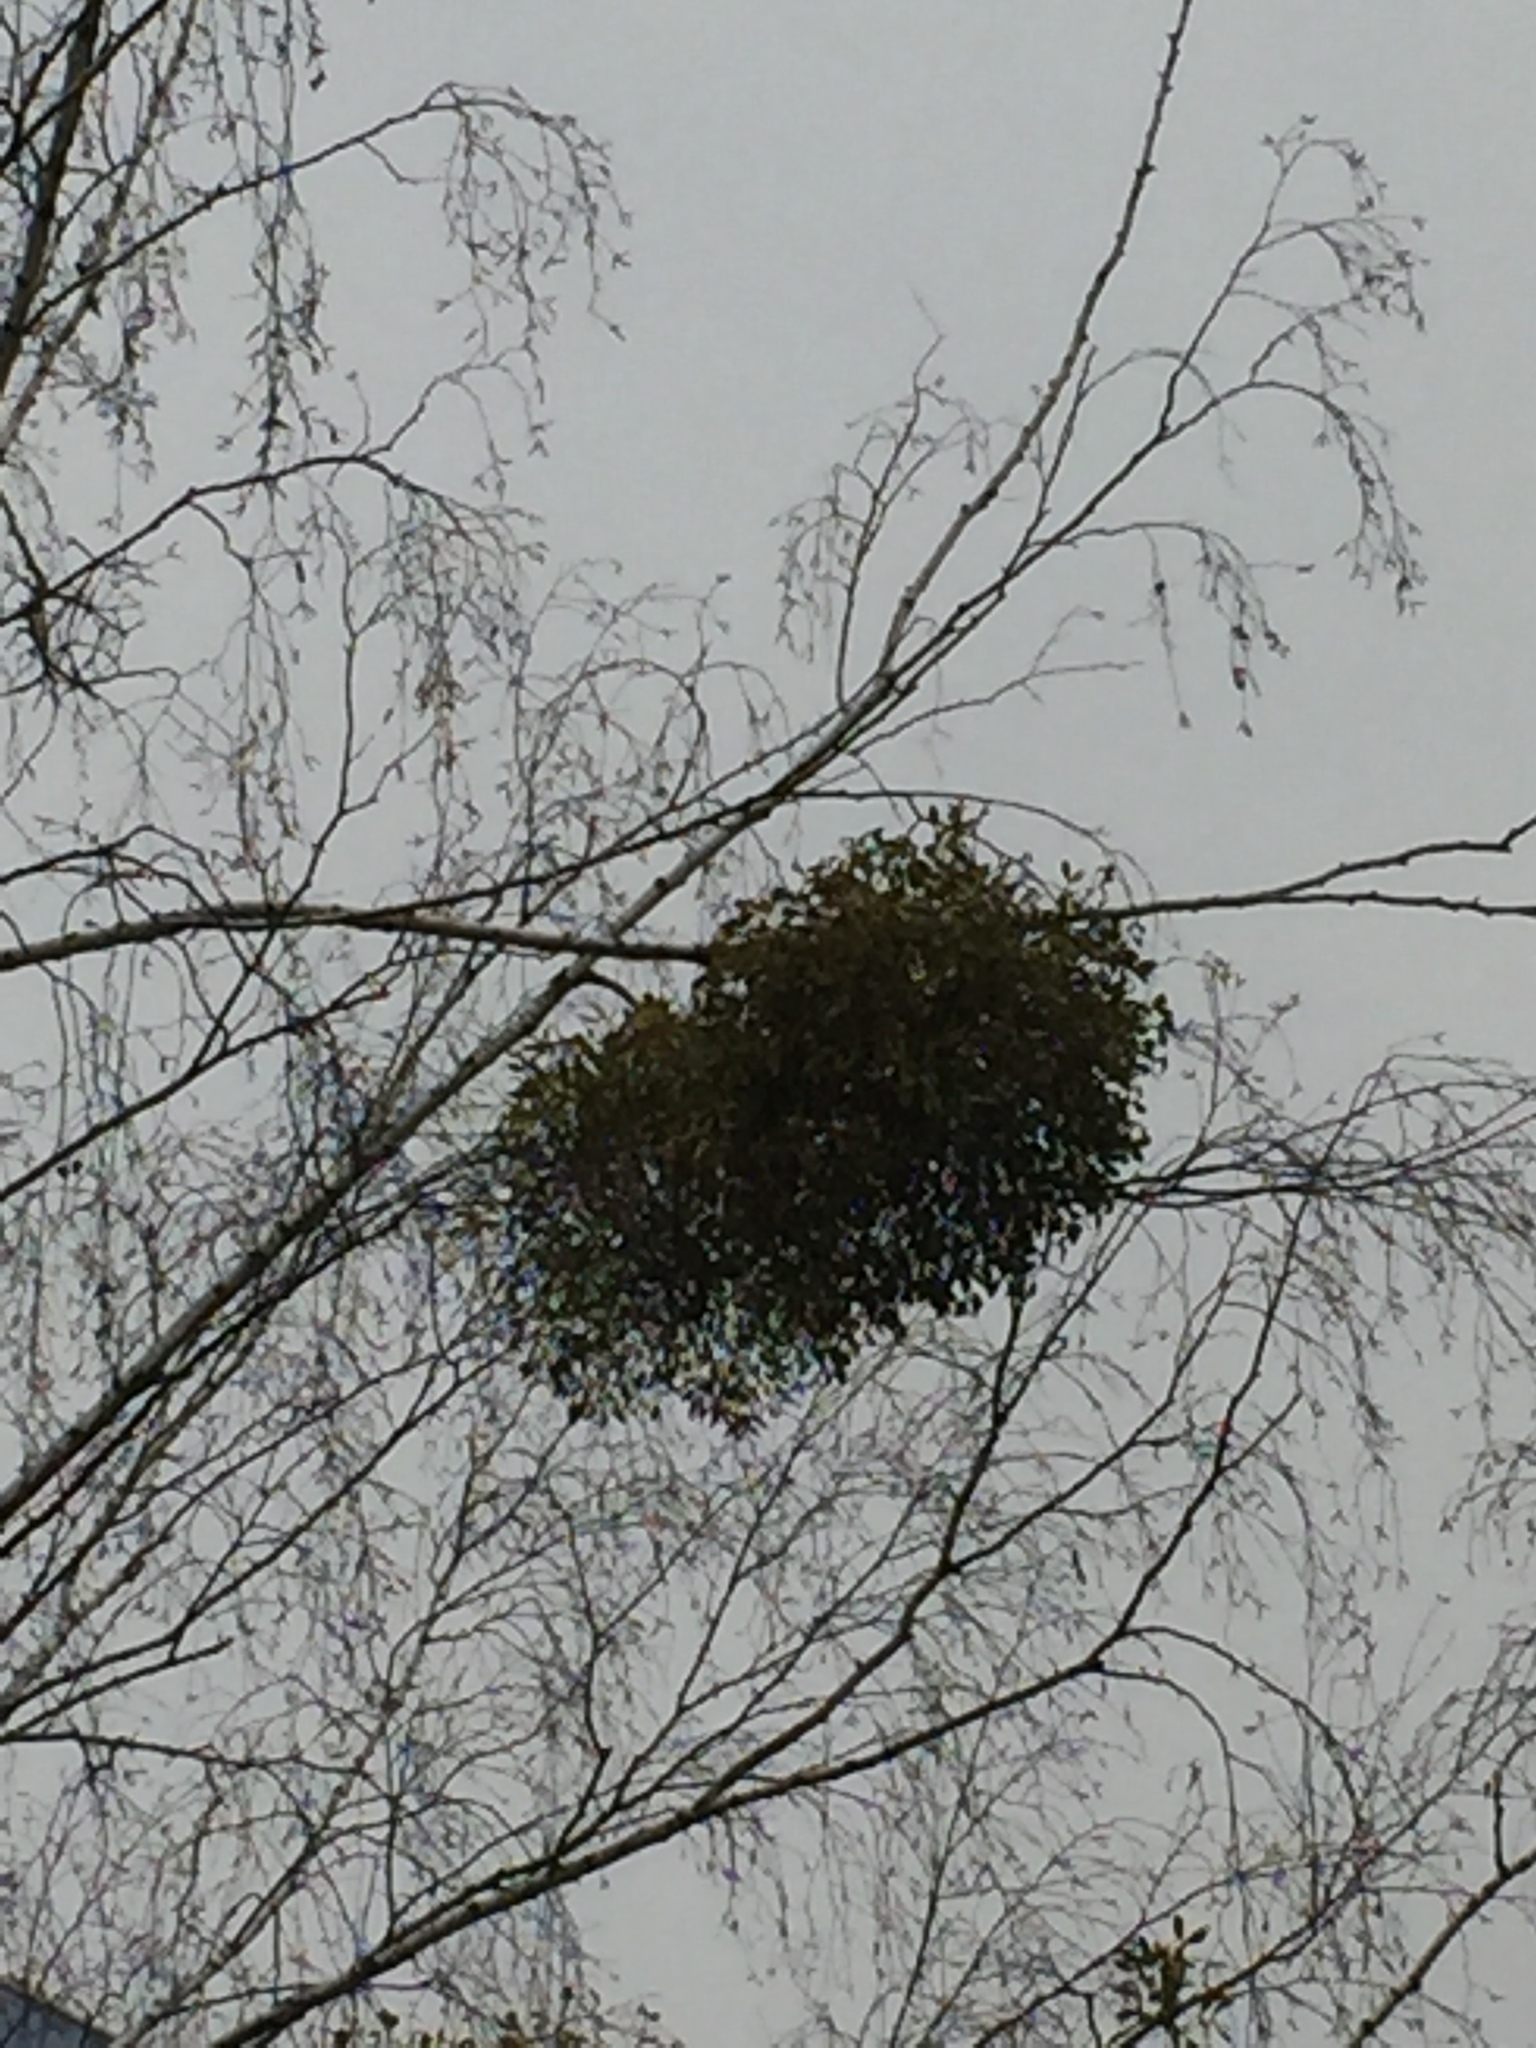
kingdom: Plantae
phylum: Tracheophyta
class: Magnoliopsida
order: Santalales
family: Viscaceae
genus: Viscum
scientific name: Viscum album
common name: Mistletoe
